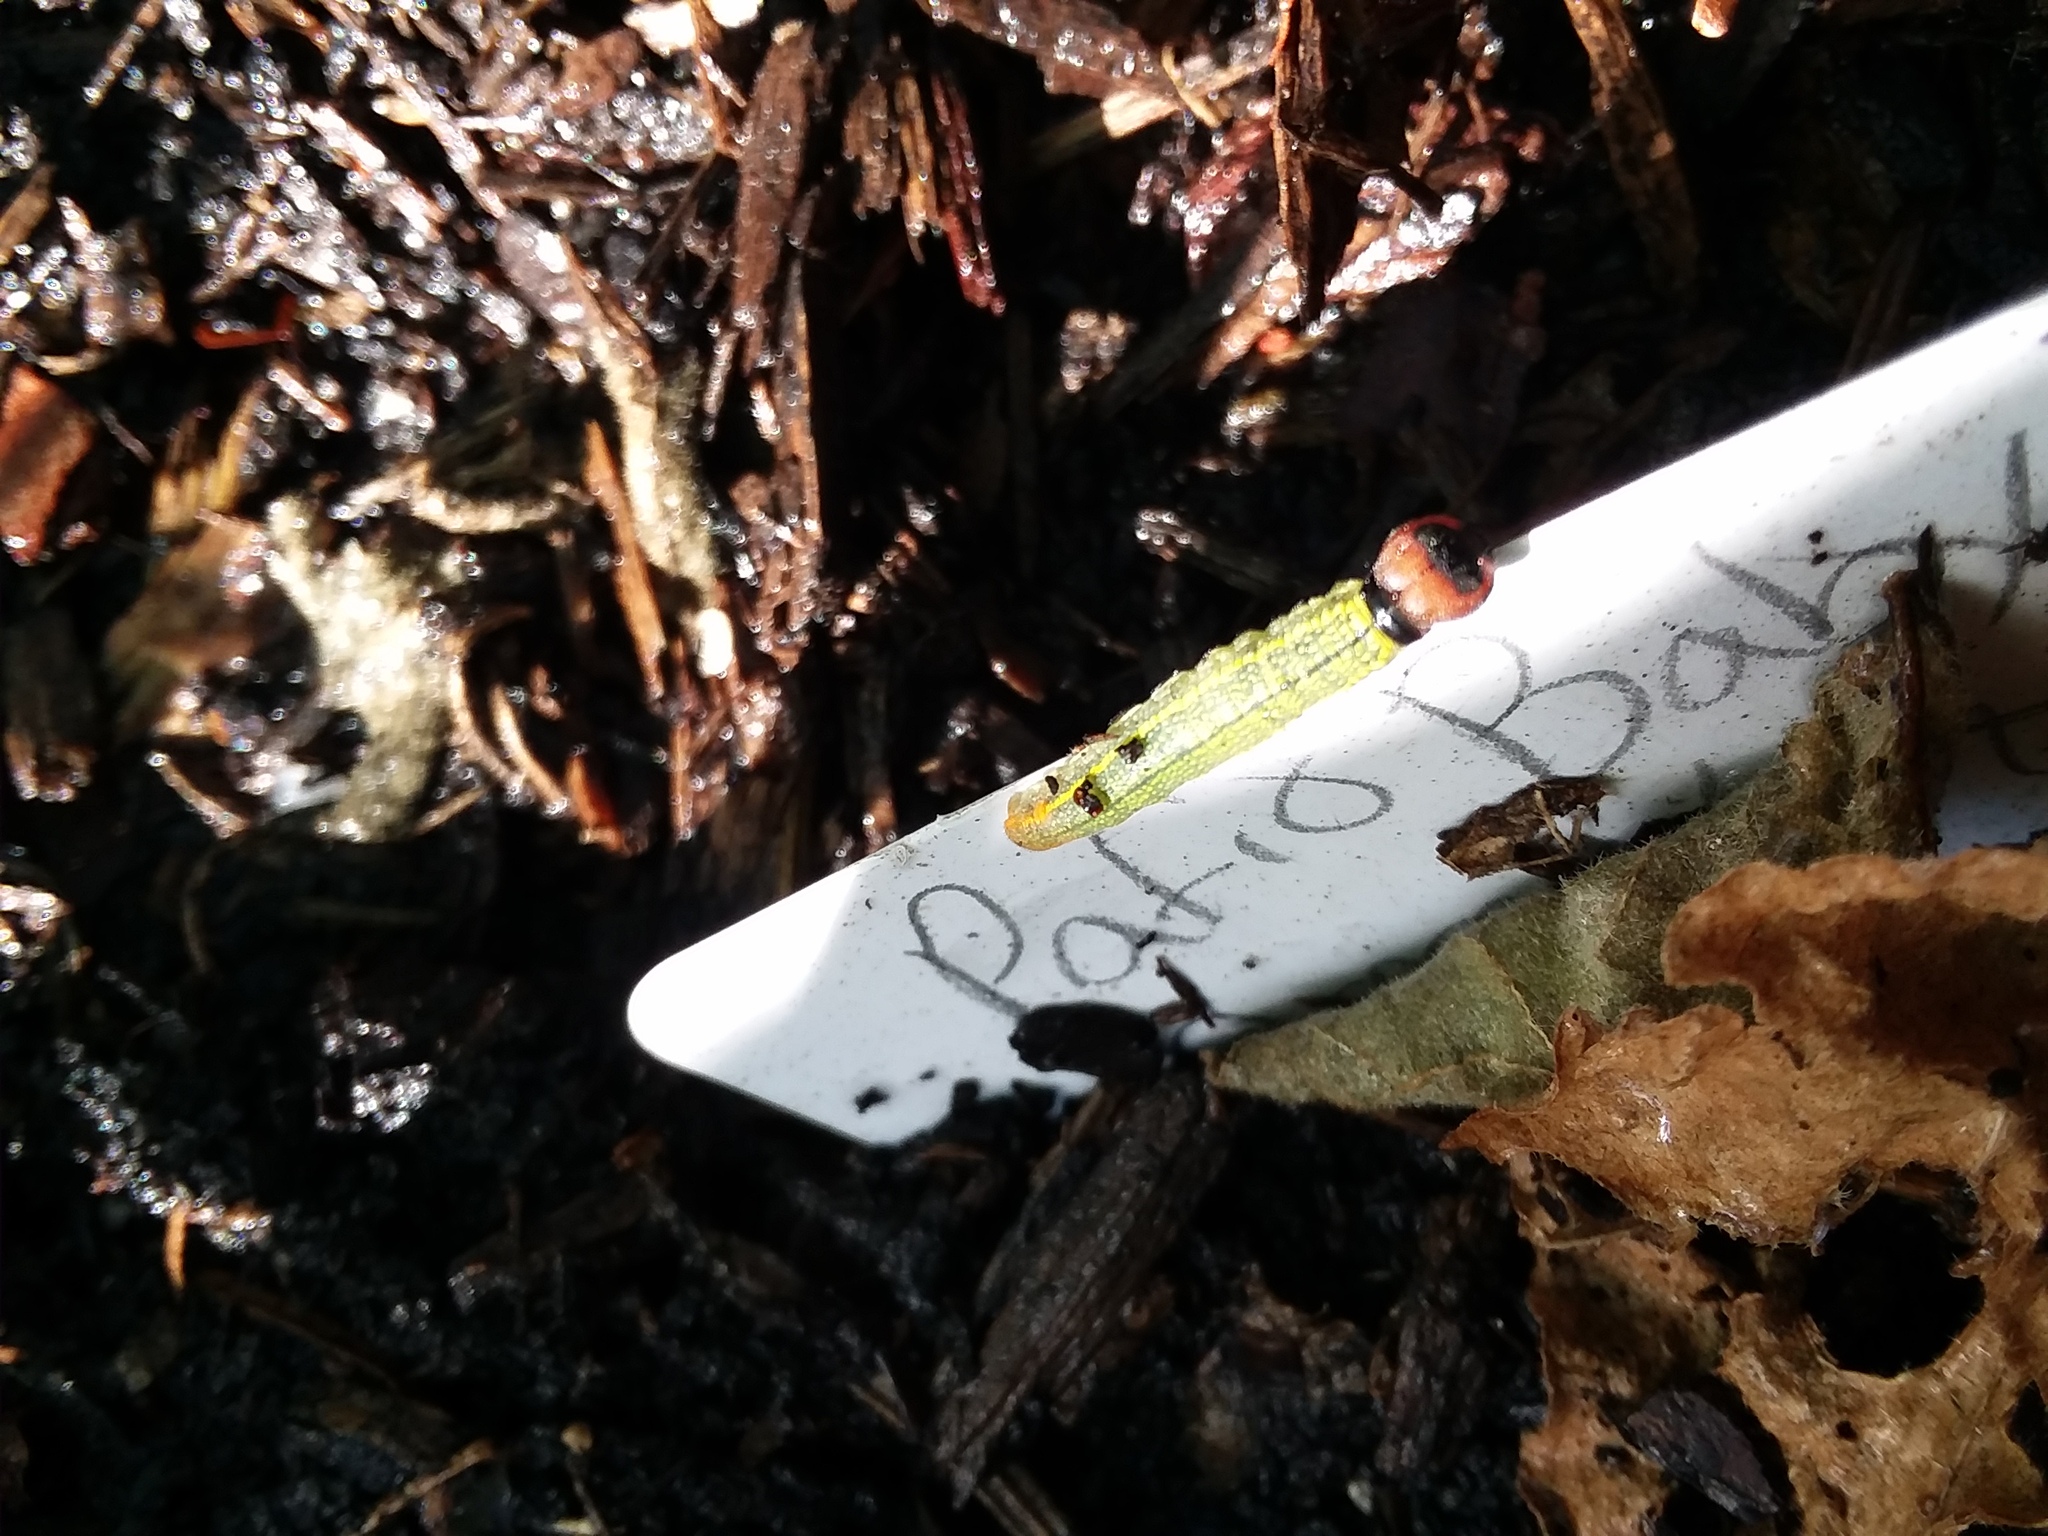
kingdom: Animalia
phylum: Arthropoda
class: Insecta
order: Lepidoptera
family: Hesperiidae
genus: Urbanus
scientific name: Urbanus proteus
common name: Long-tailed skipper
